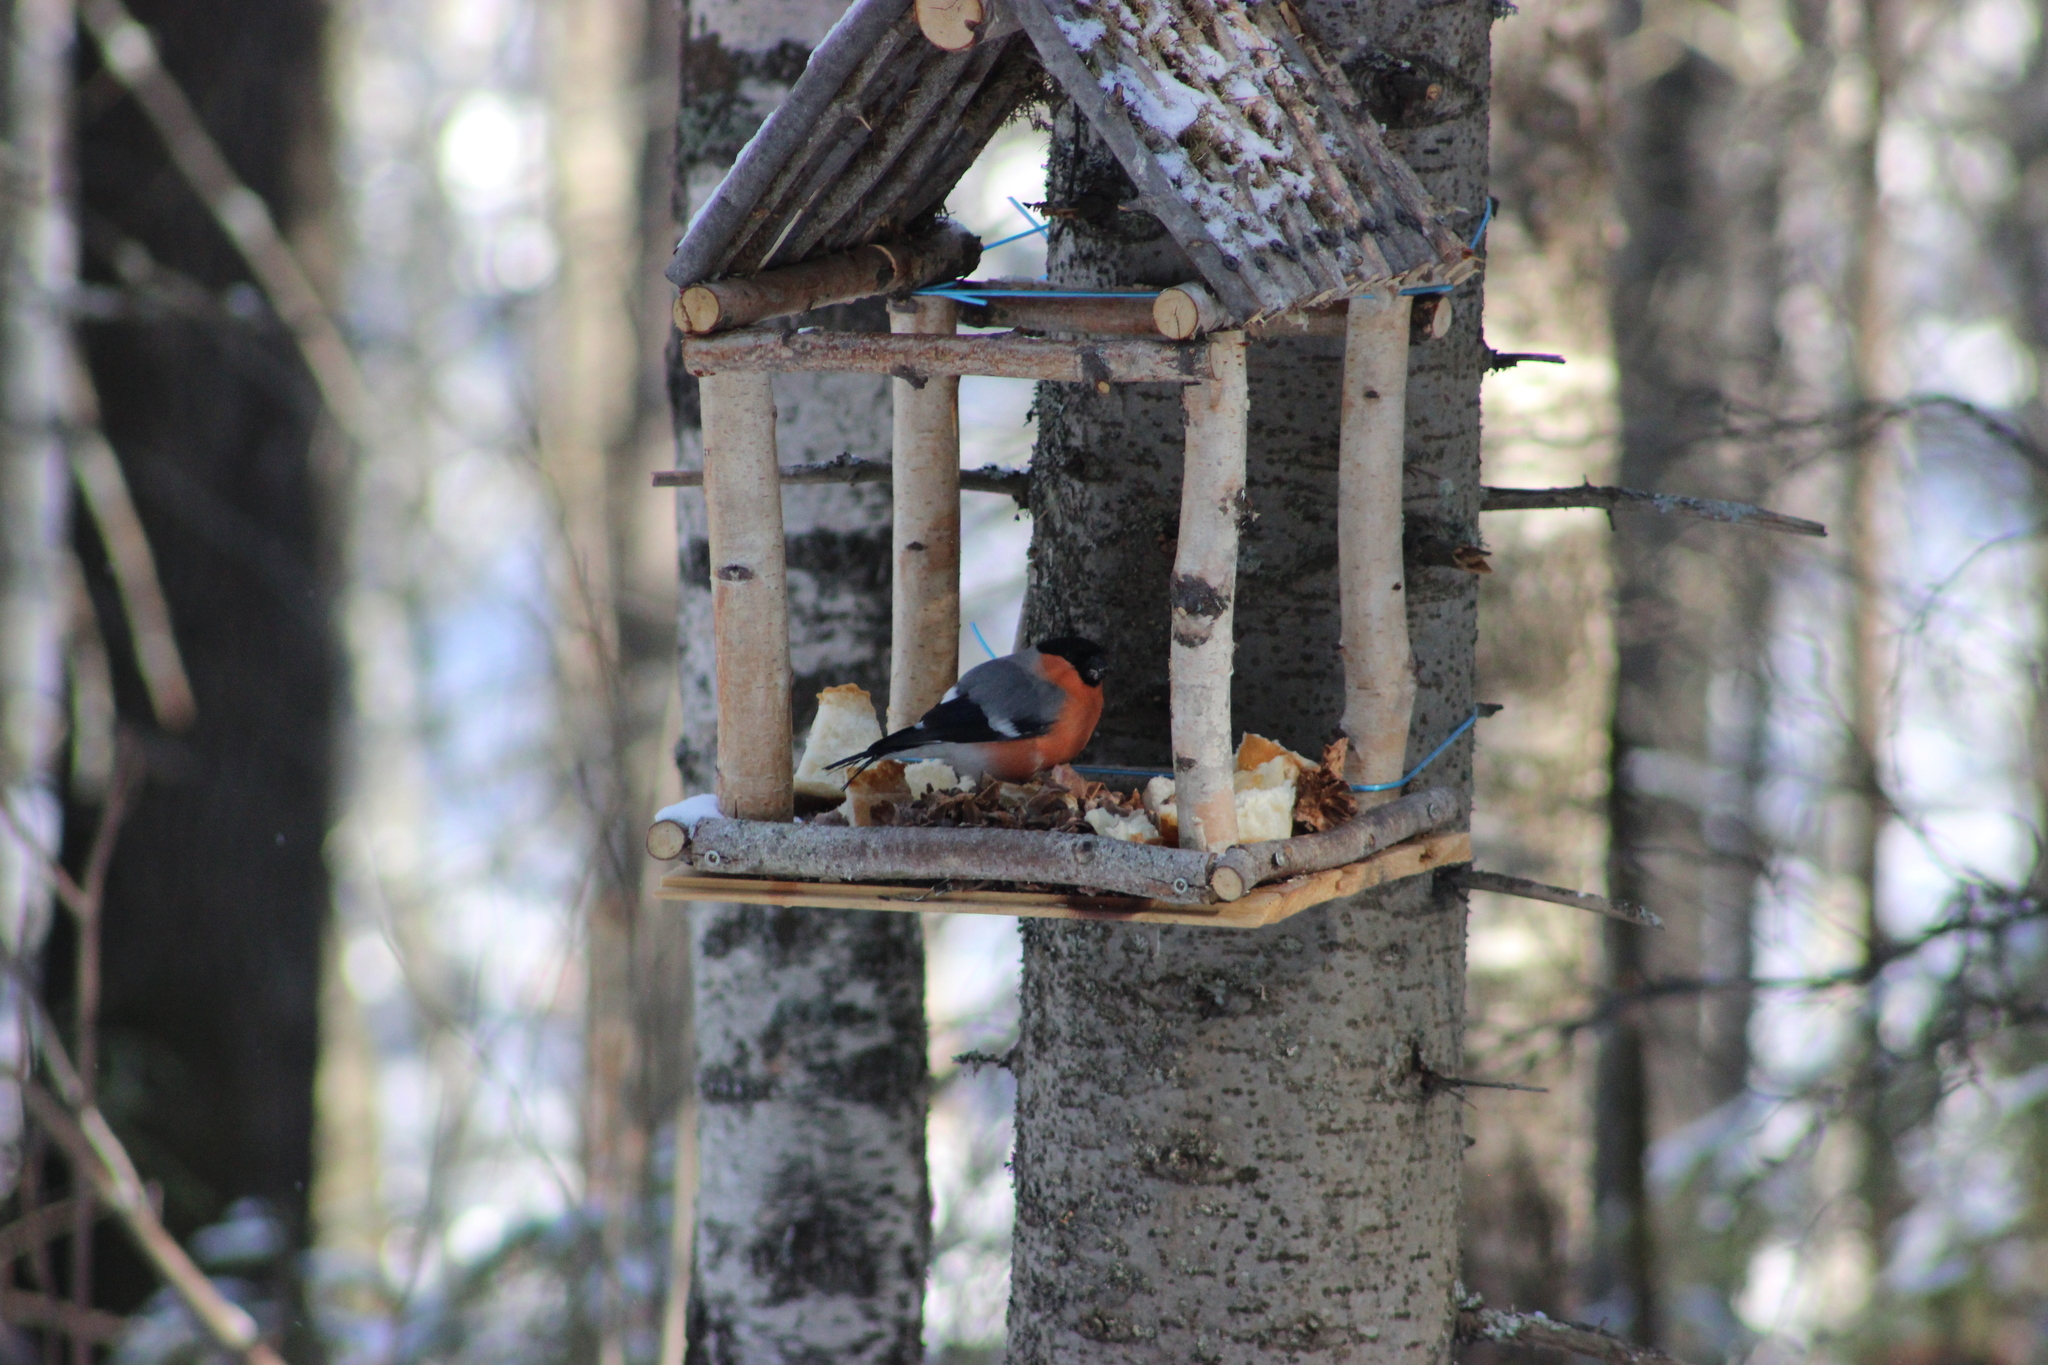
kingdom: Animalia
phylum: Chordata
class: Aves
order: Passeriformes
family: Fringillidae
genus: Pyrrhula
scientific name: Pyrrhula pyrrhula
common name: Eurasian bullfinch
